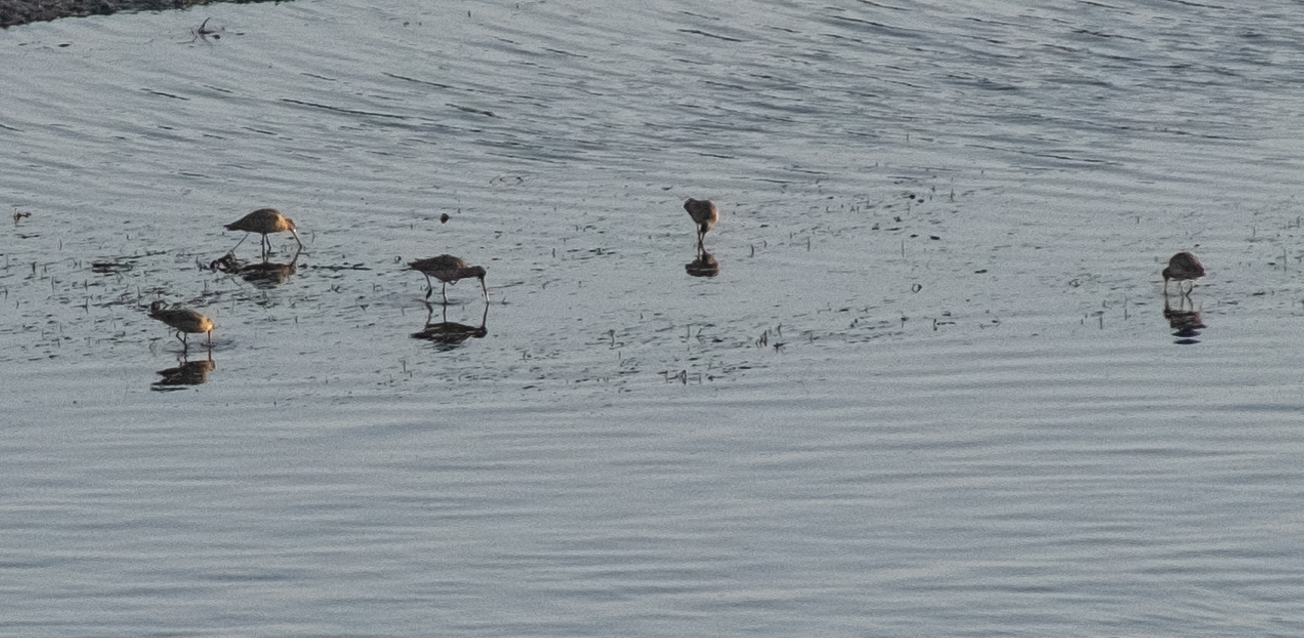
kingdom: Animalia
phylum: Chordata
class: Aves
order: Charadriiformes
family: Scolopacidae
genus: Limosa
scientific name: Limosa fedoa
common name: Marbled godwit
